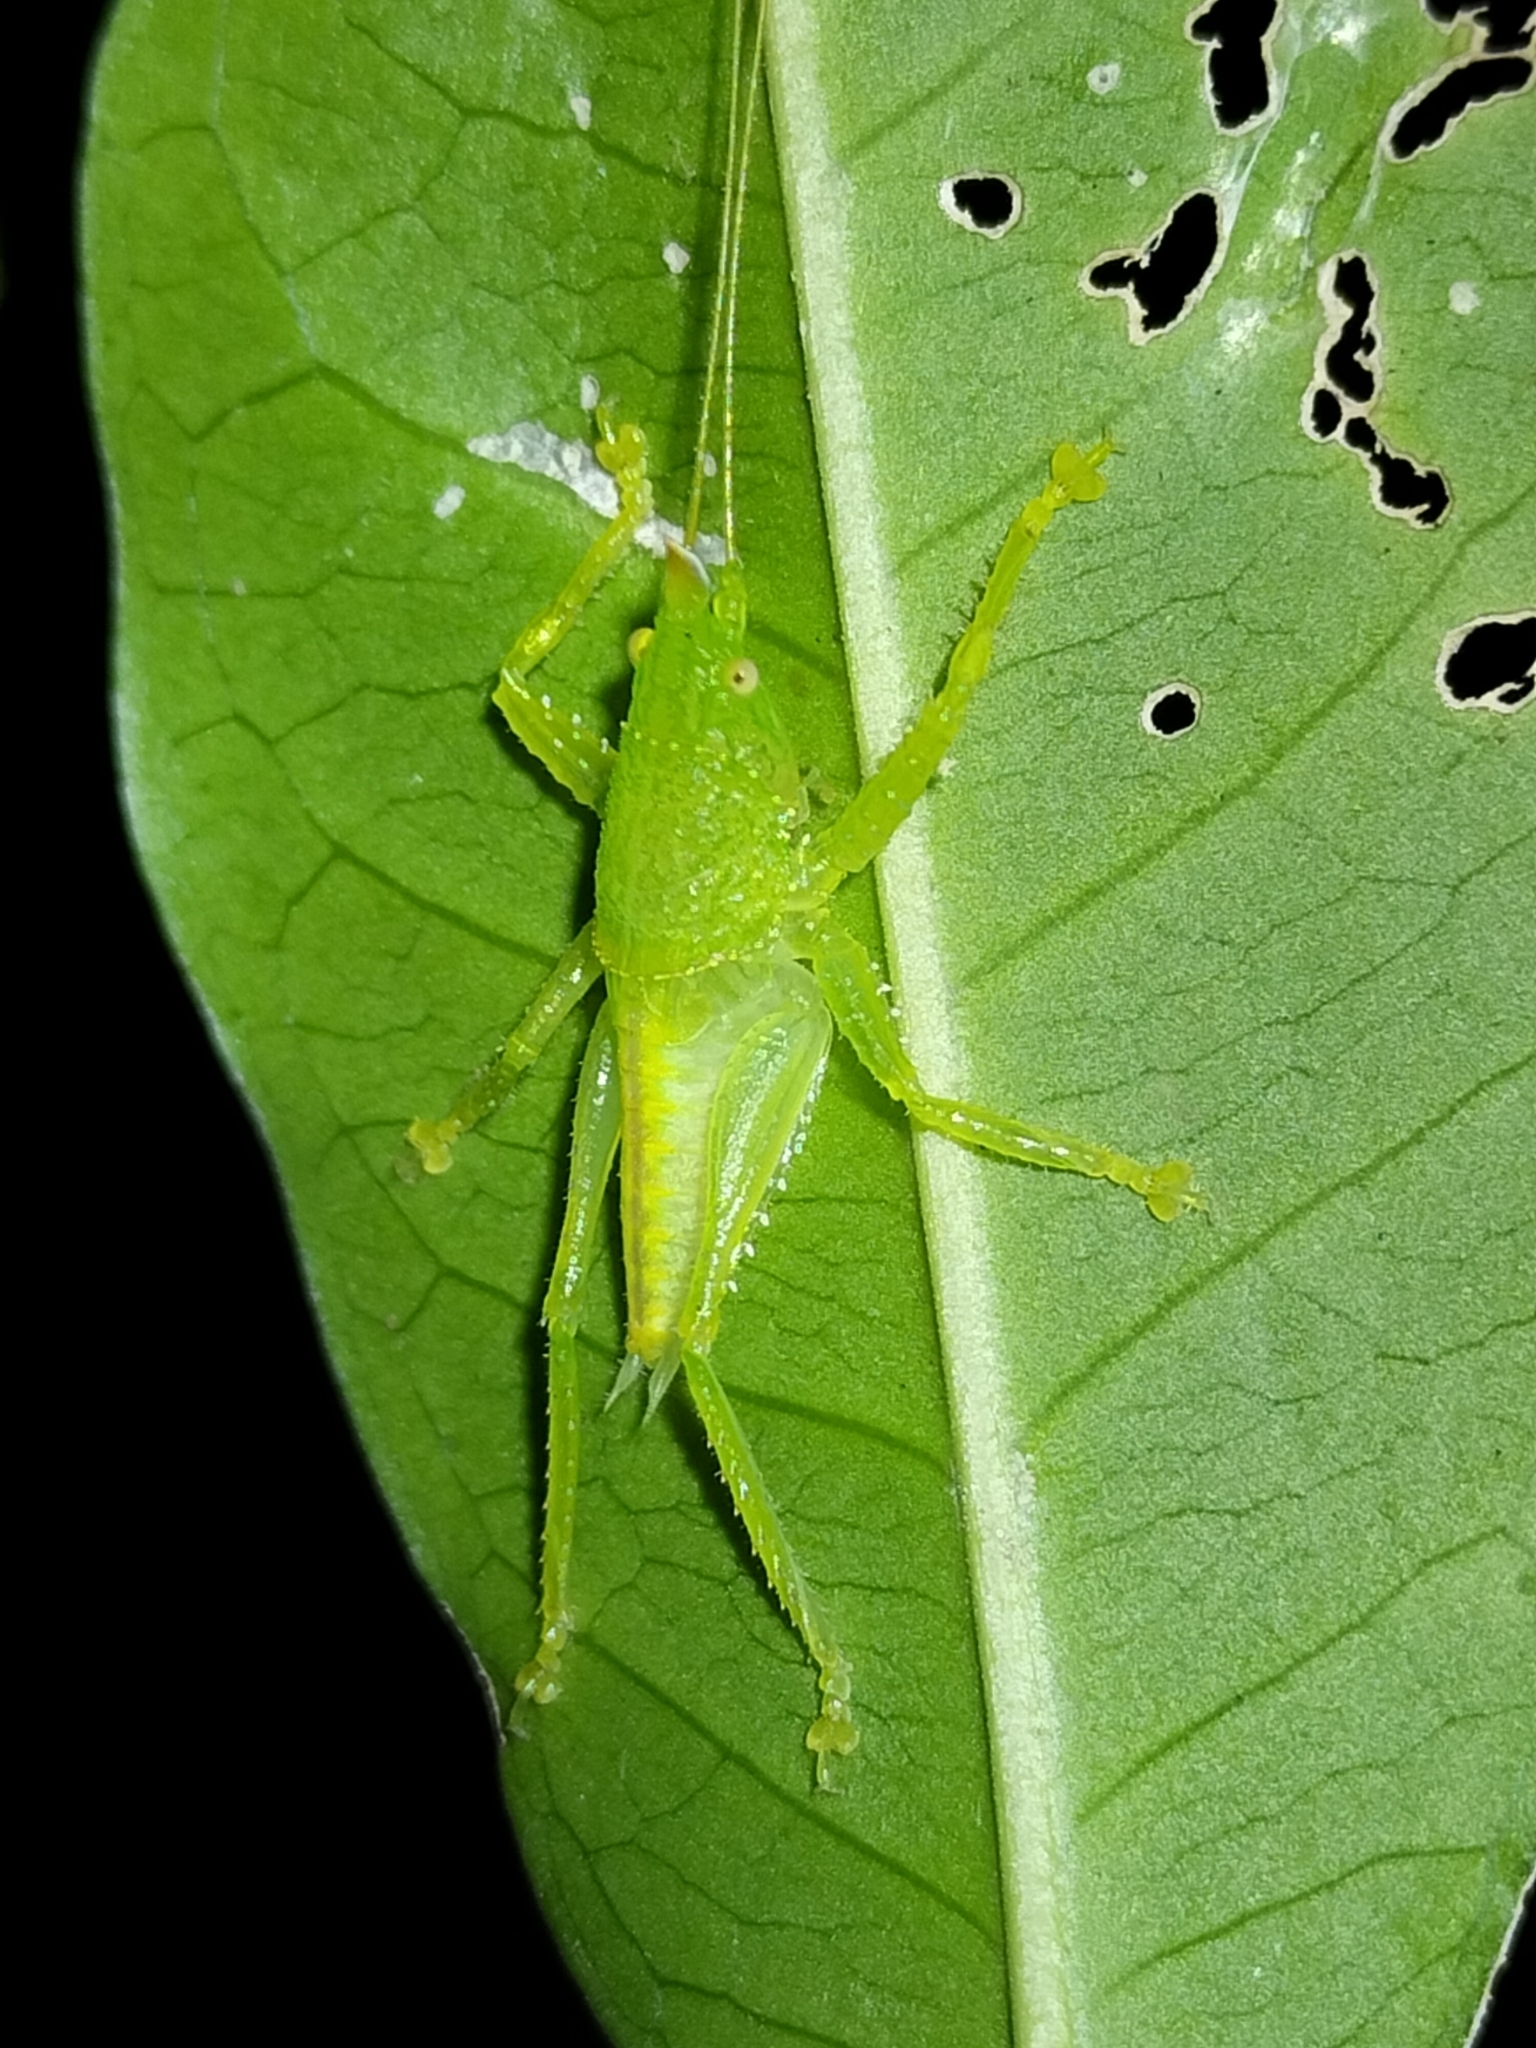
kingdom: Animalia
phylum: Arthropoda
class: Insecta
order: Orthoptera
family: Tettigoniidae
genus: Emeraldagraecia
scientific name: Emeraldagraecia munggarifrons
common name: Pink-faced emerald
